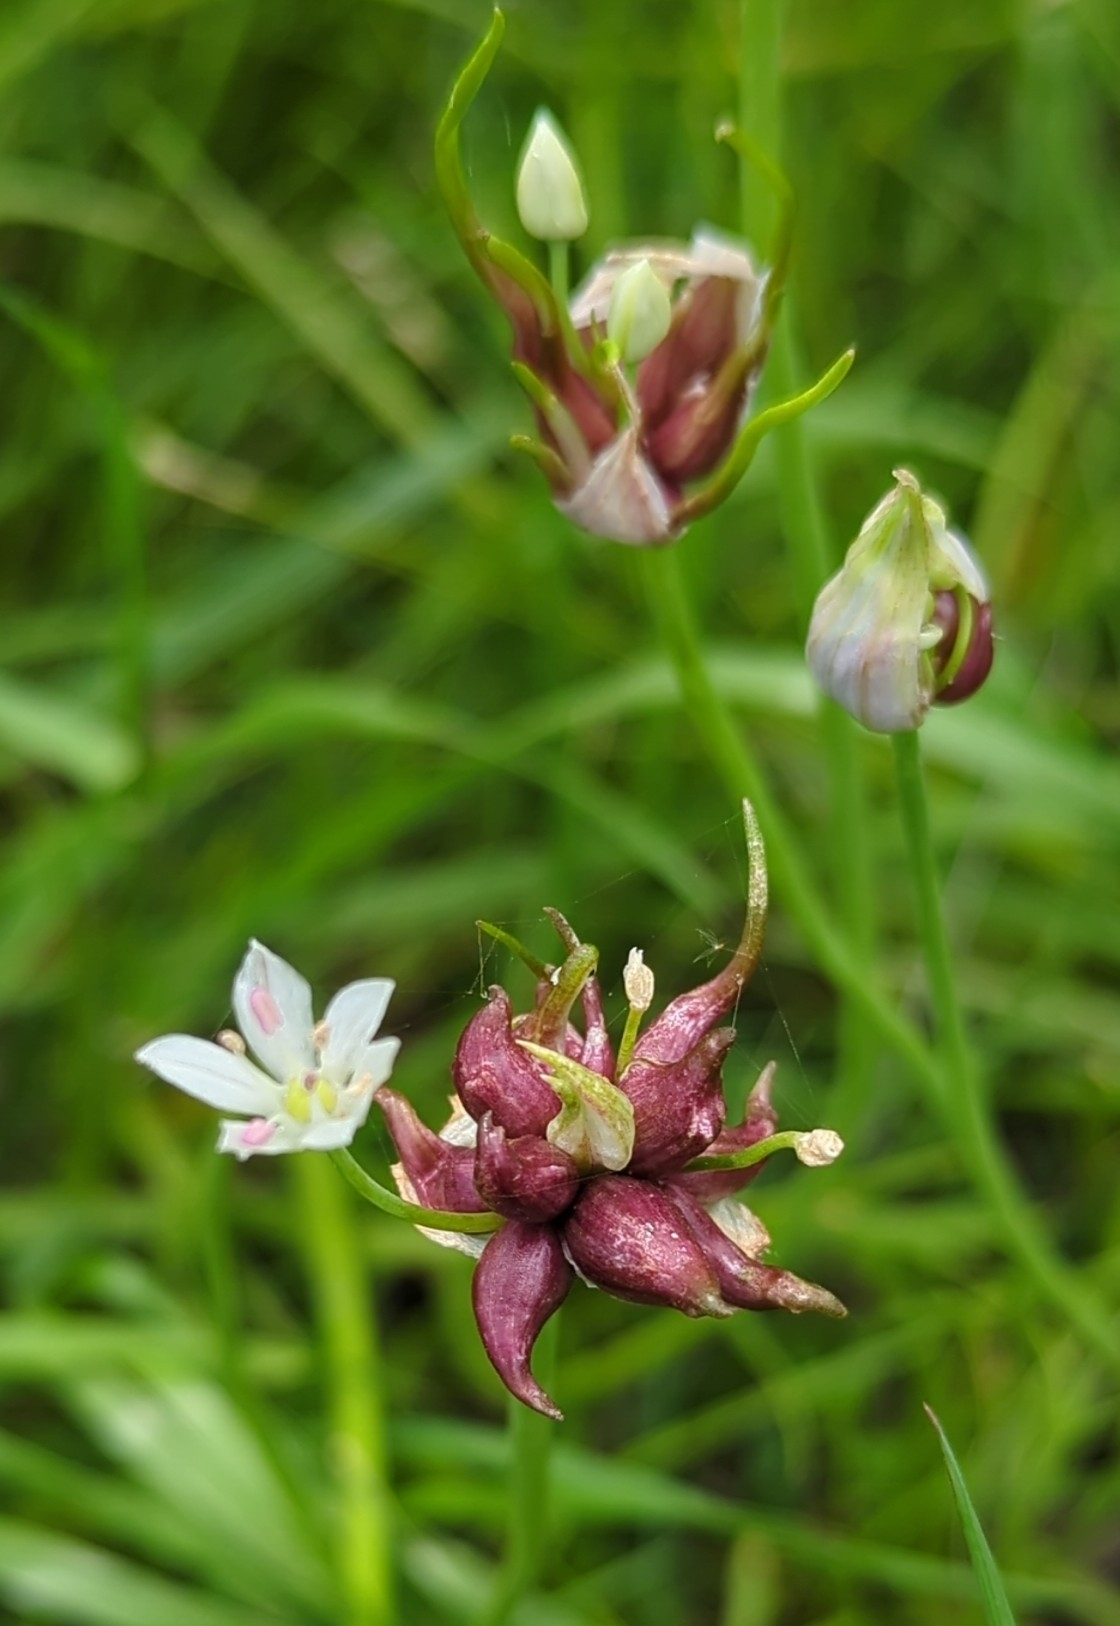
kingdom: Plantae
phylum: Tracheophyta
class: Liliopsida
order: Asparagales
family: Amaryllidaceae
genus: Allium
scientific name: Allium canadense
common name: Meadow garlic
